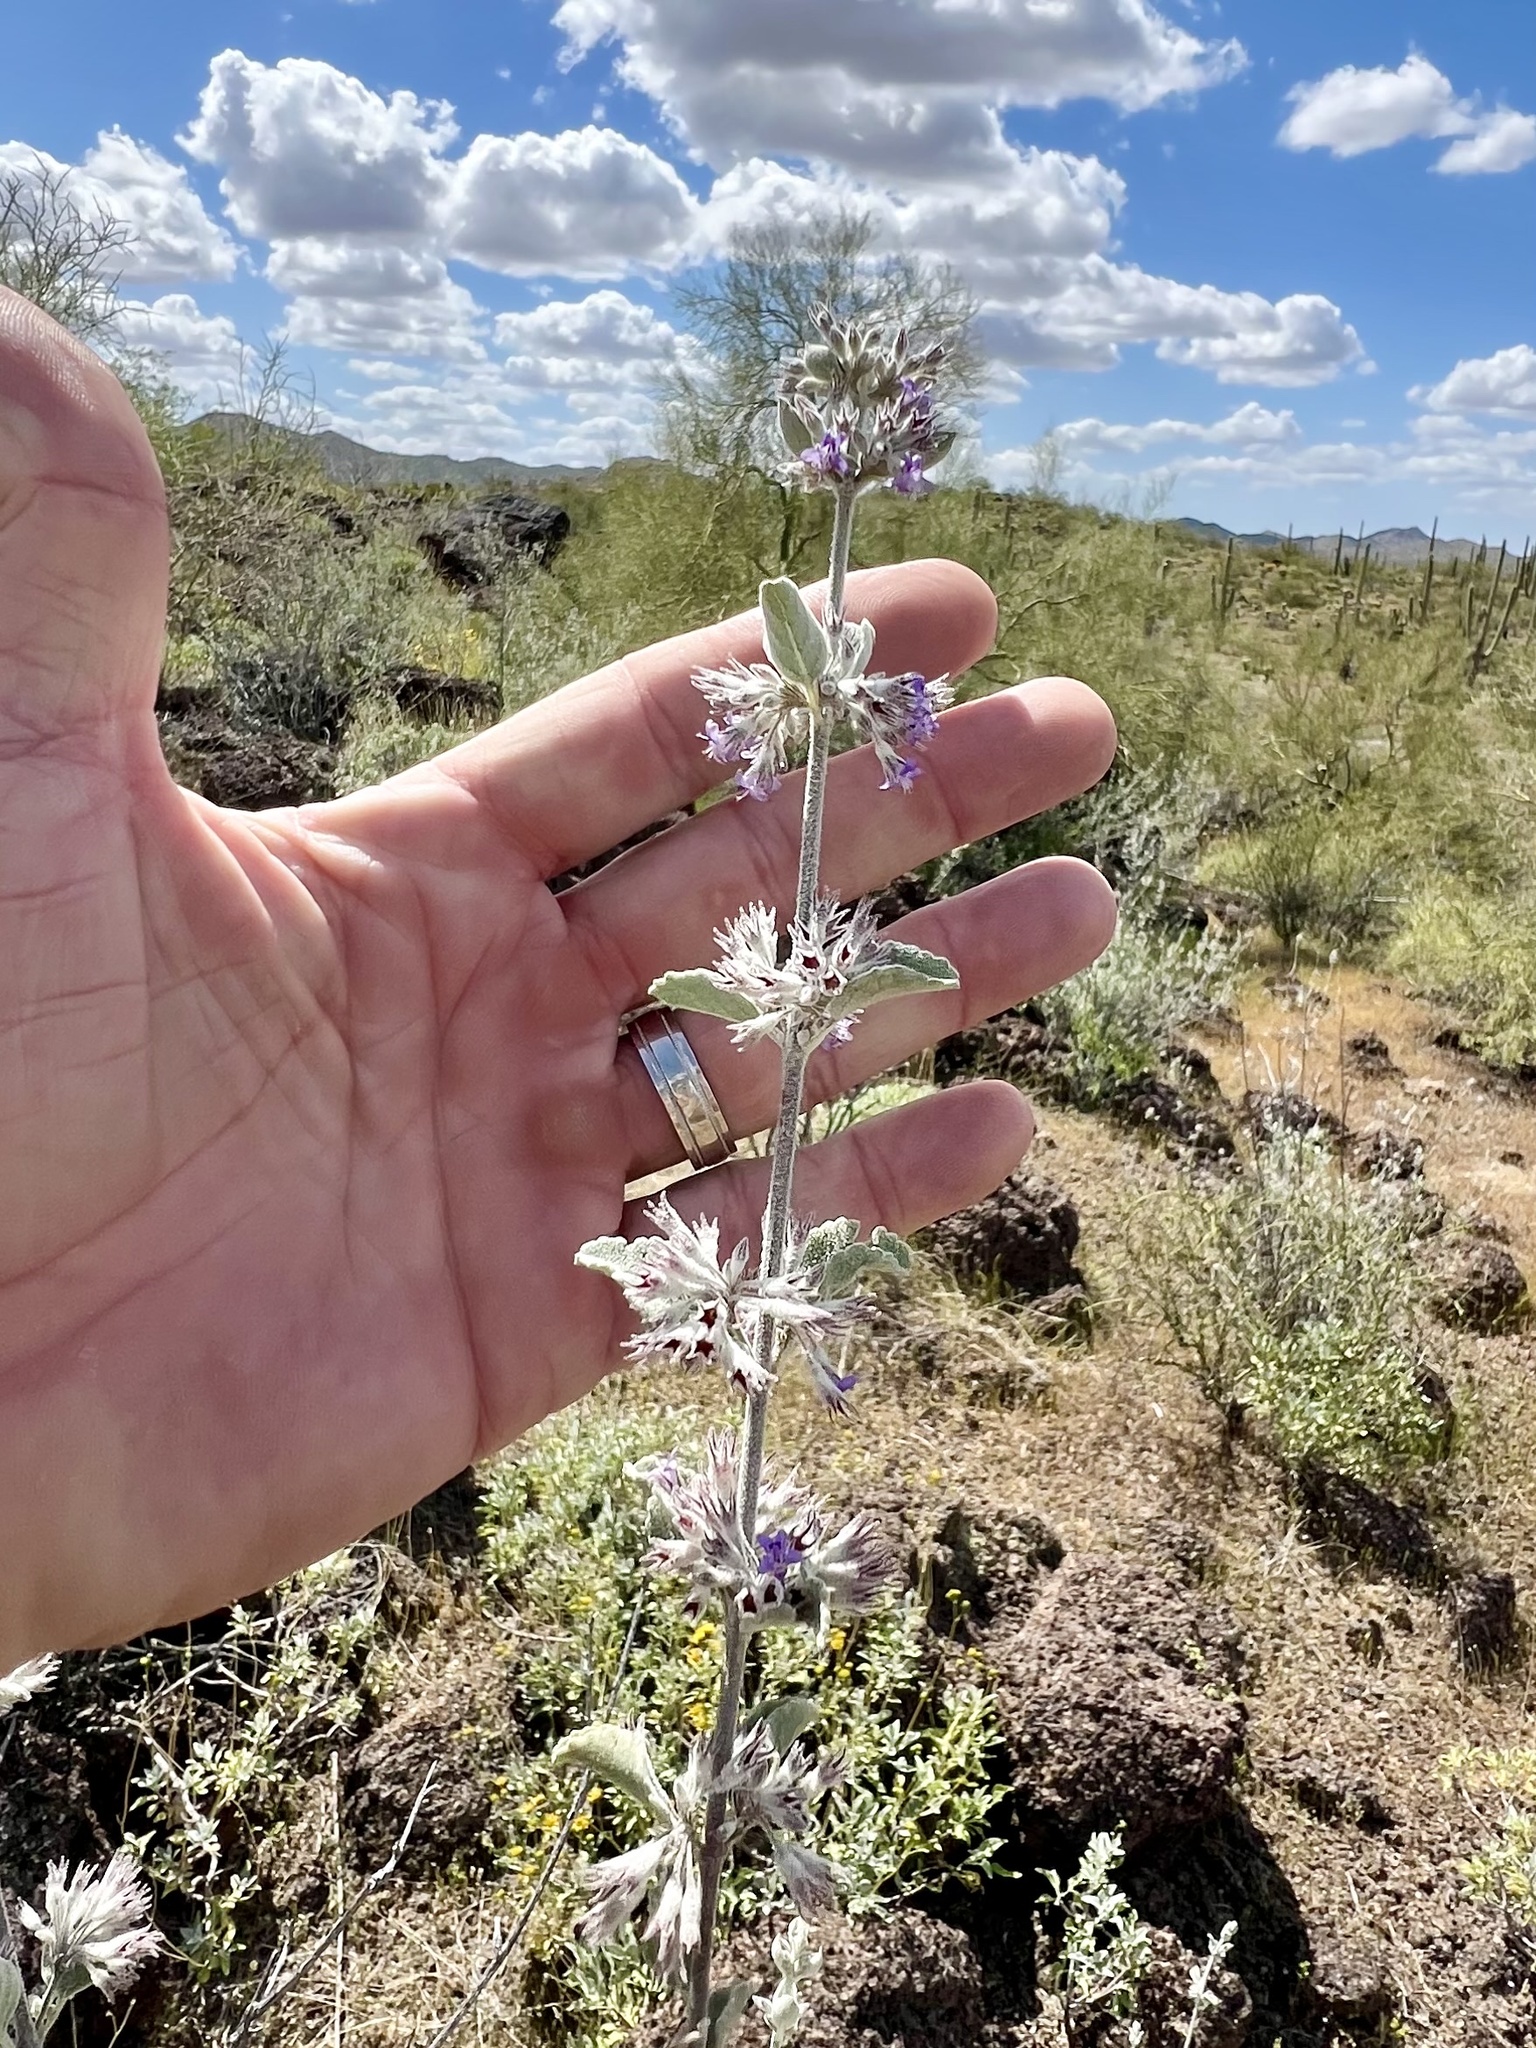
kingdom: Plantae
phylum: Tracheophyta
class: Magnoliopsida
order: Lamiales
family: Lamiaceae
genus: Condea
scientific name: Condea emoryi
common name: Chia
